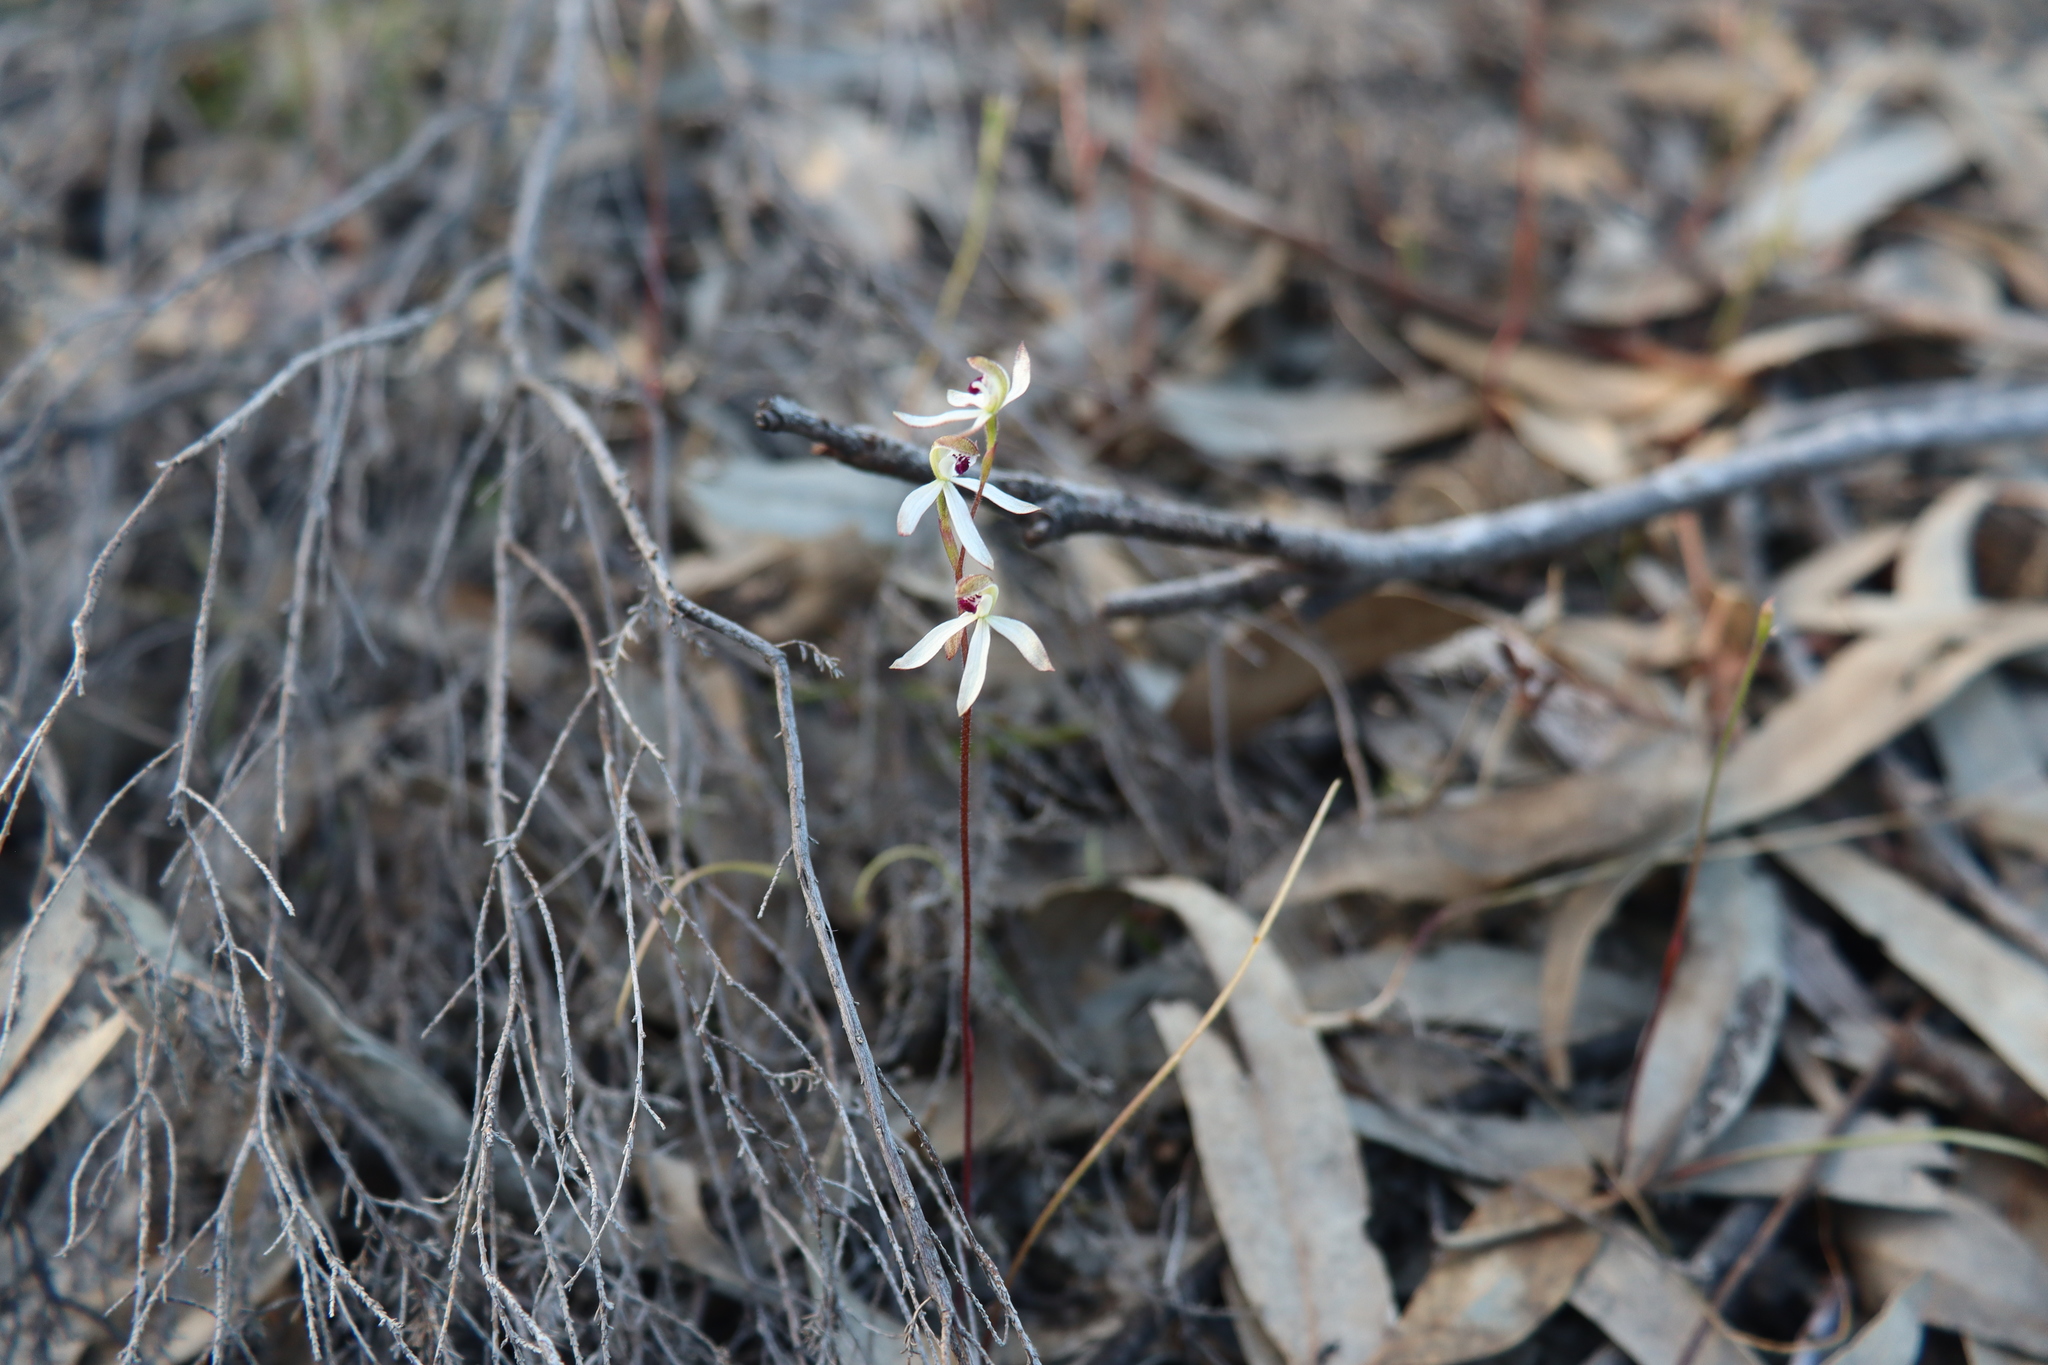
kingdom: Plantae
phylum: Tracheophyta
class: Liliopsida
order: Asparagales
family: Orchidaceae
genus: Caladenia
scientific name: Caladenia cucullata
